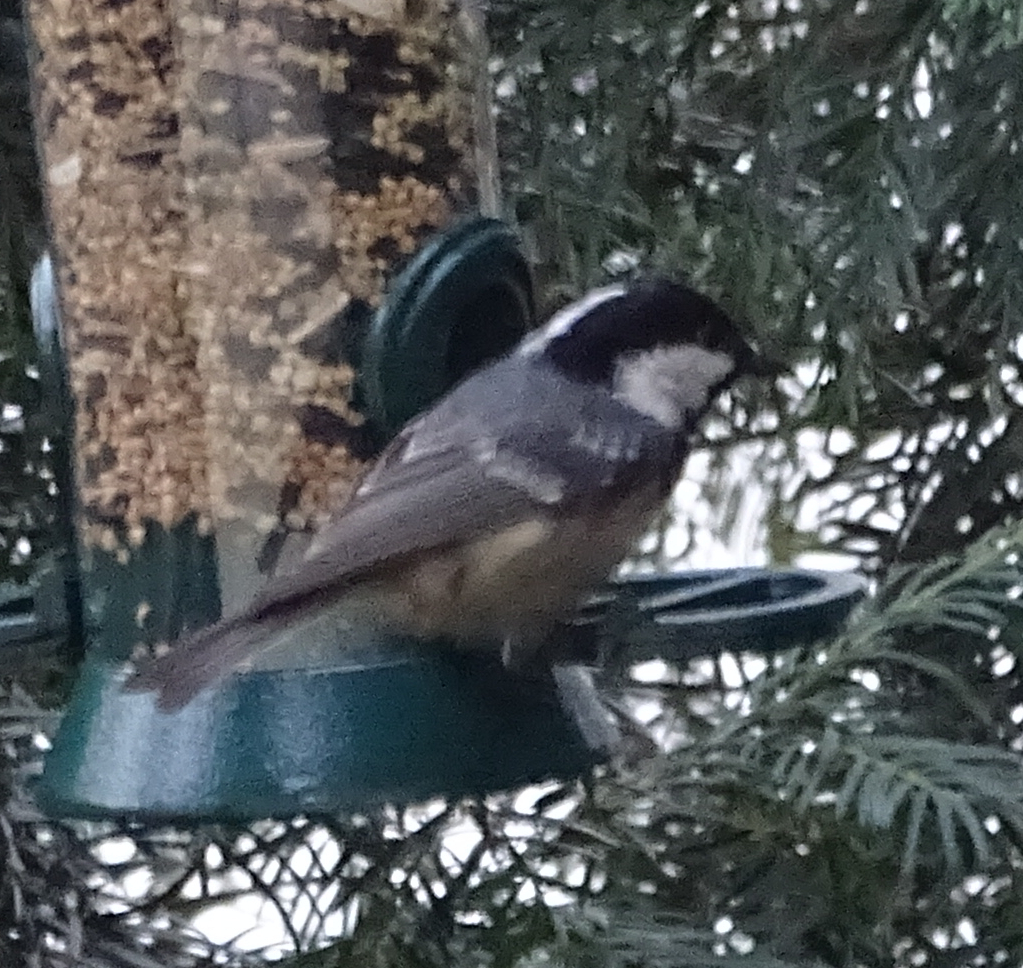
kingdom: Animalia
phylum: Chordata
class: Aves
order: Passeriformes
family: Paridae
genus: Periparus
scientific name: Periparus ater
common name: Coal tit
